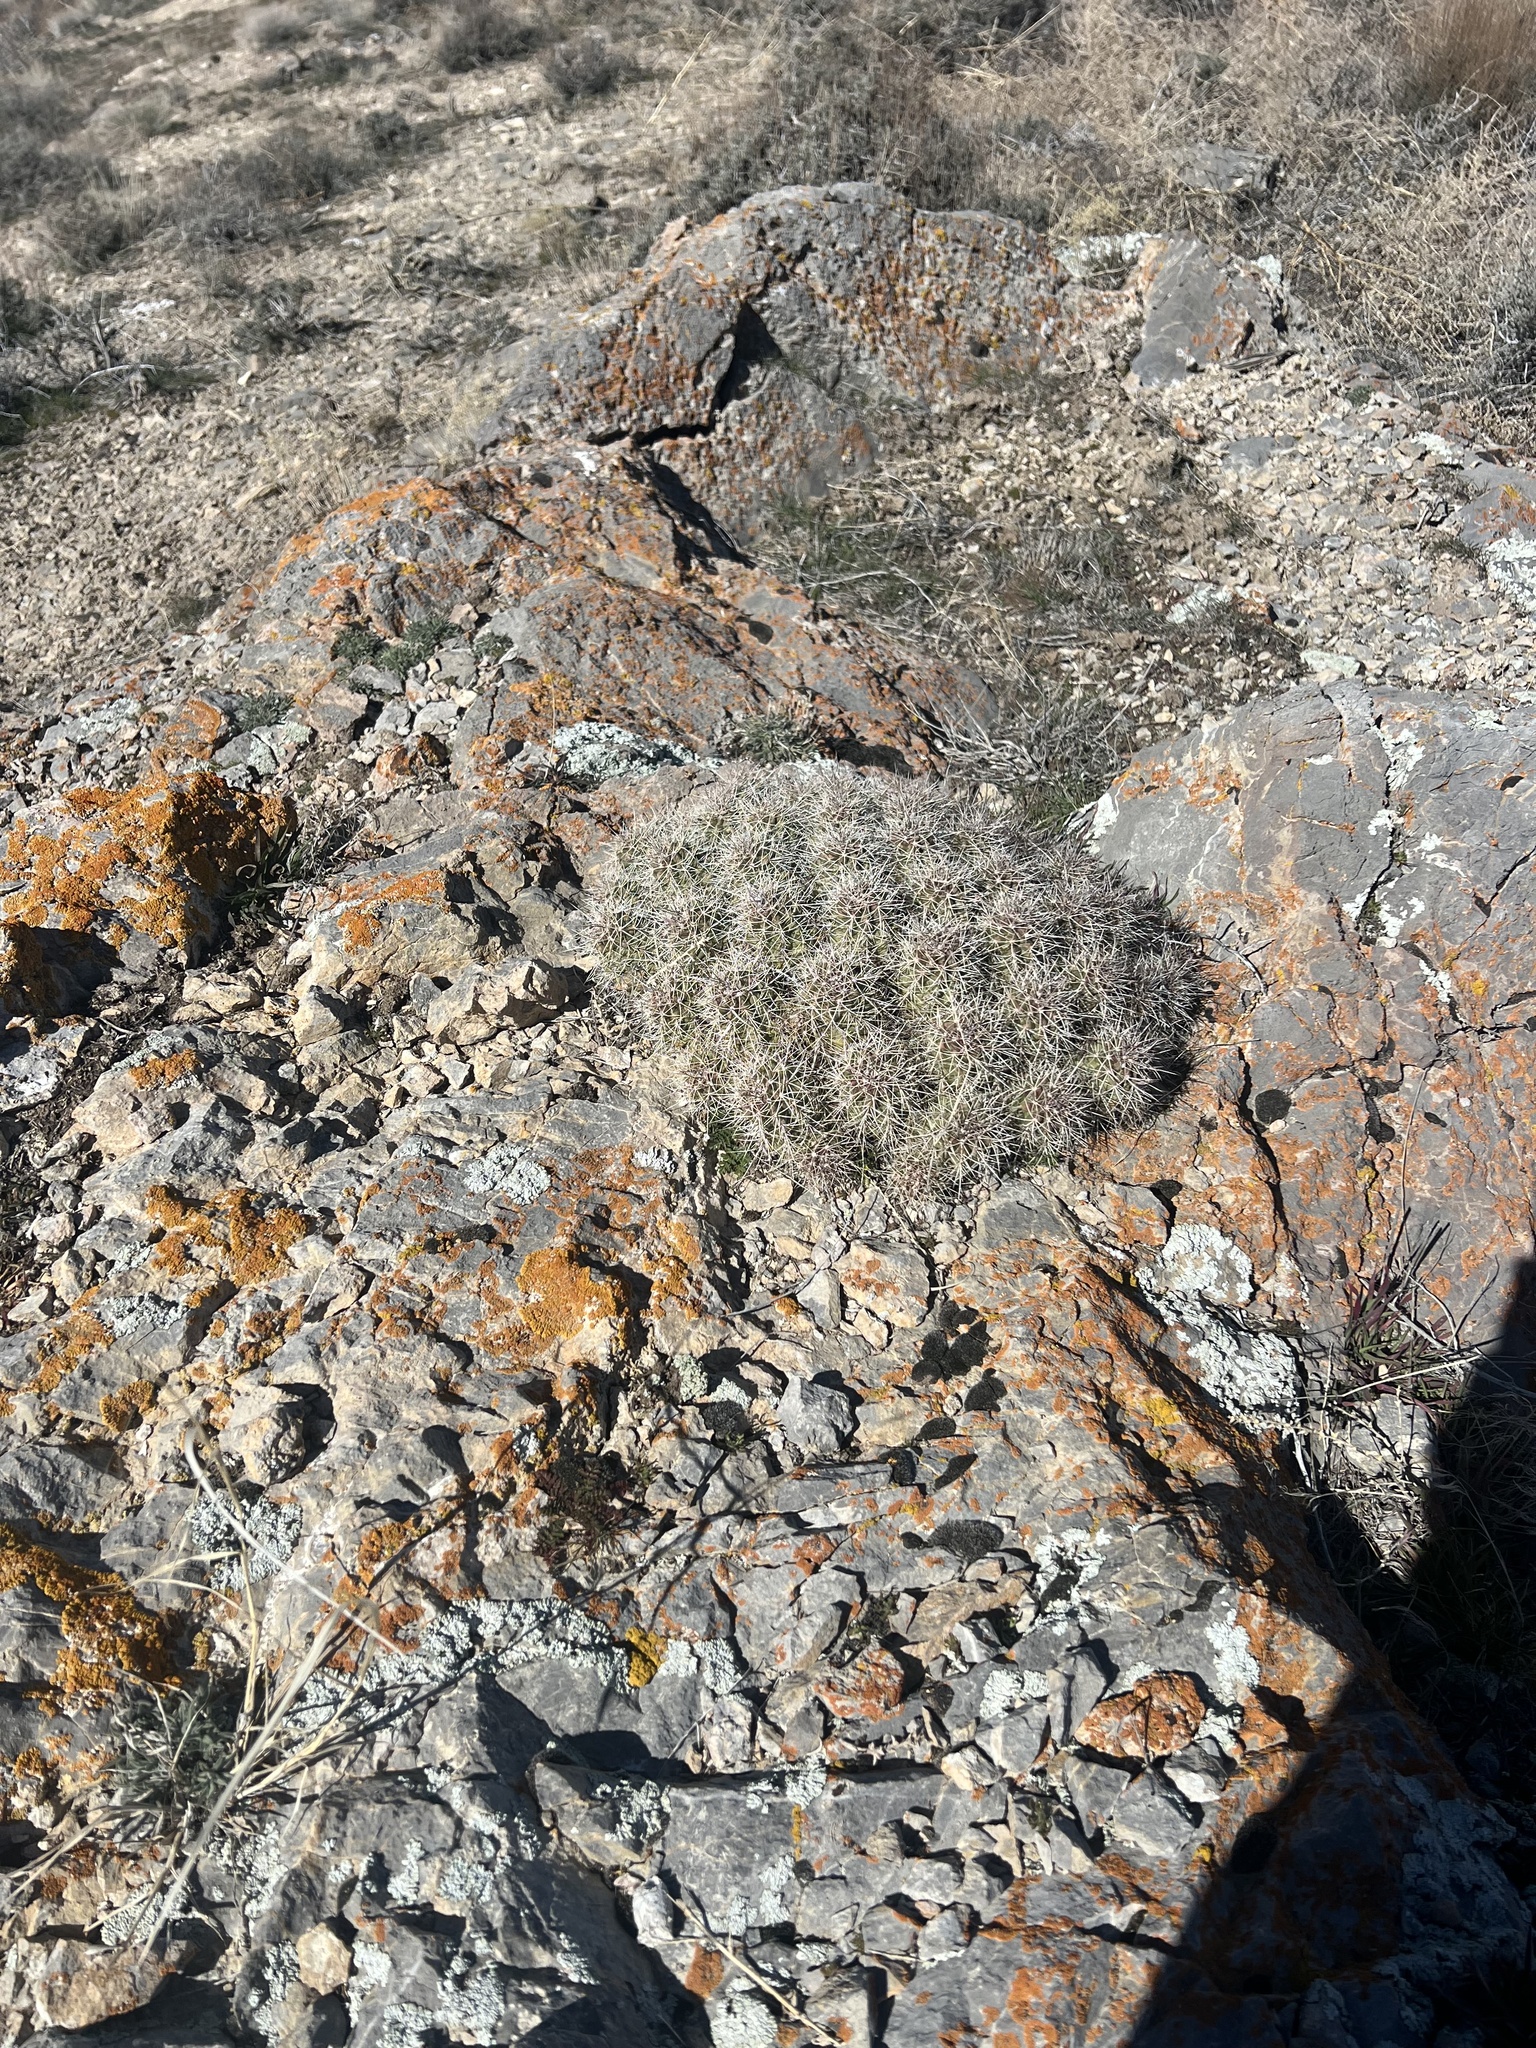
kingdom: Plantae
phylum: Tracheophyta
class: Magnoliopsida
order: Caryophyllales
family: Cactaceae
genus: Echinocereus
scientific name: Echinocereus triglochidiatus
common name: Claretcup hedgehog
